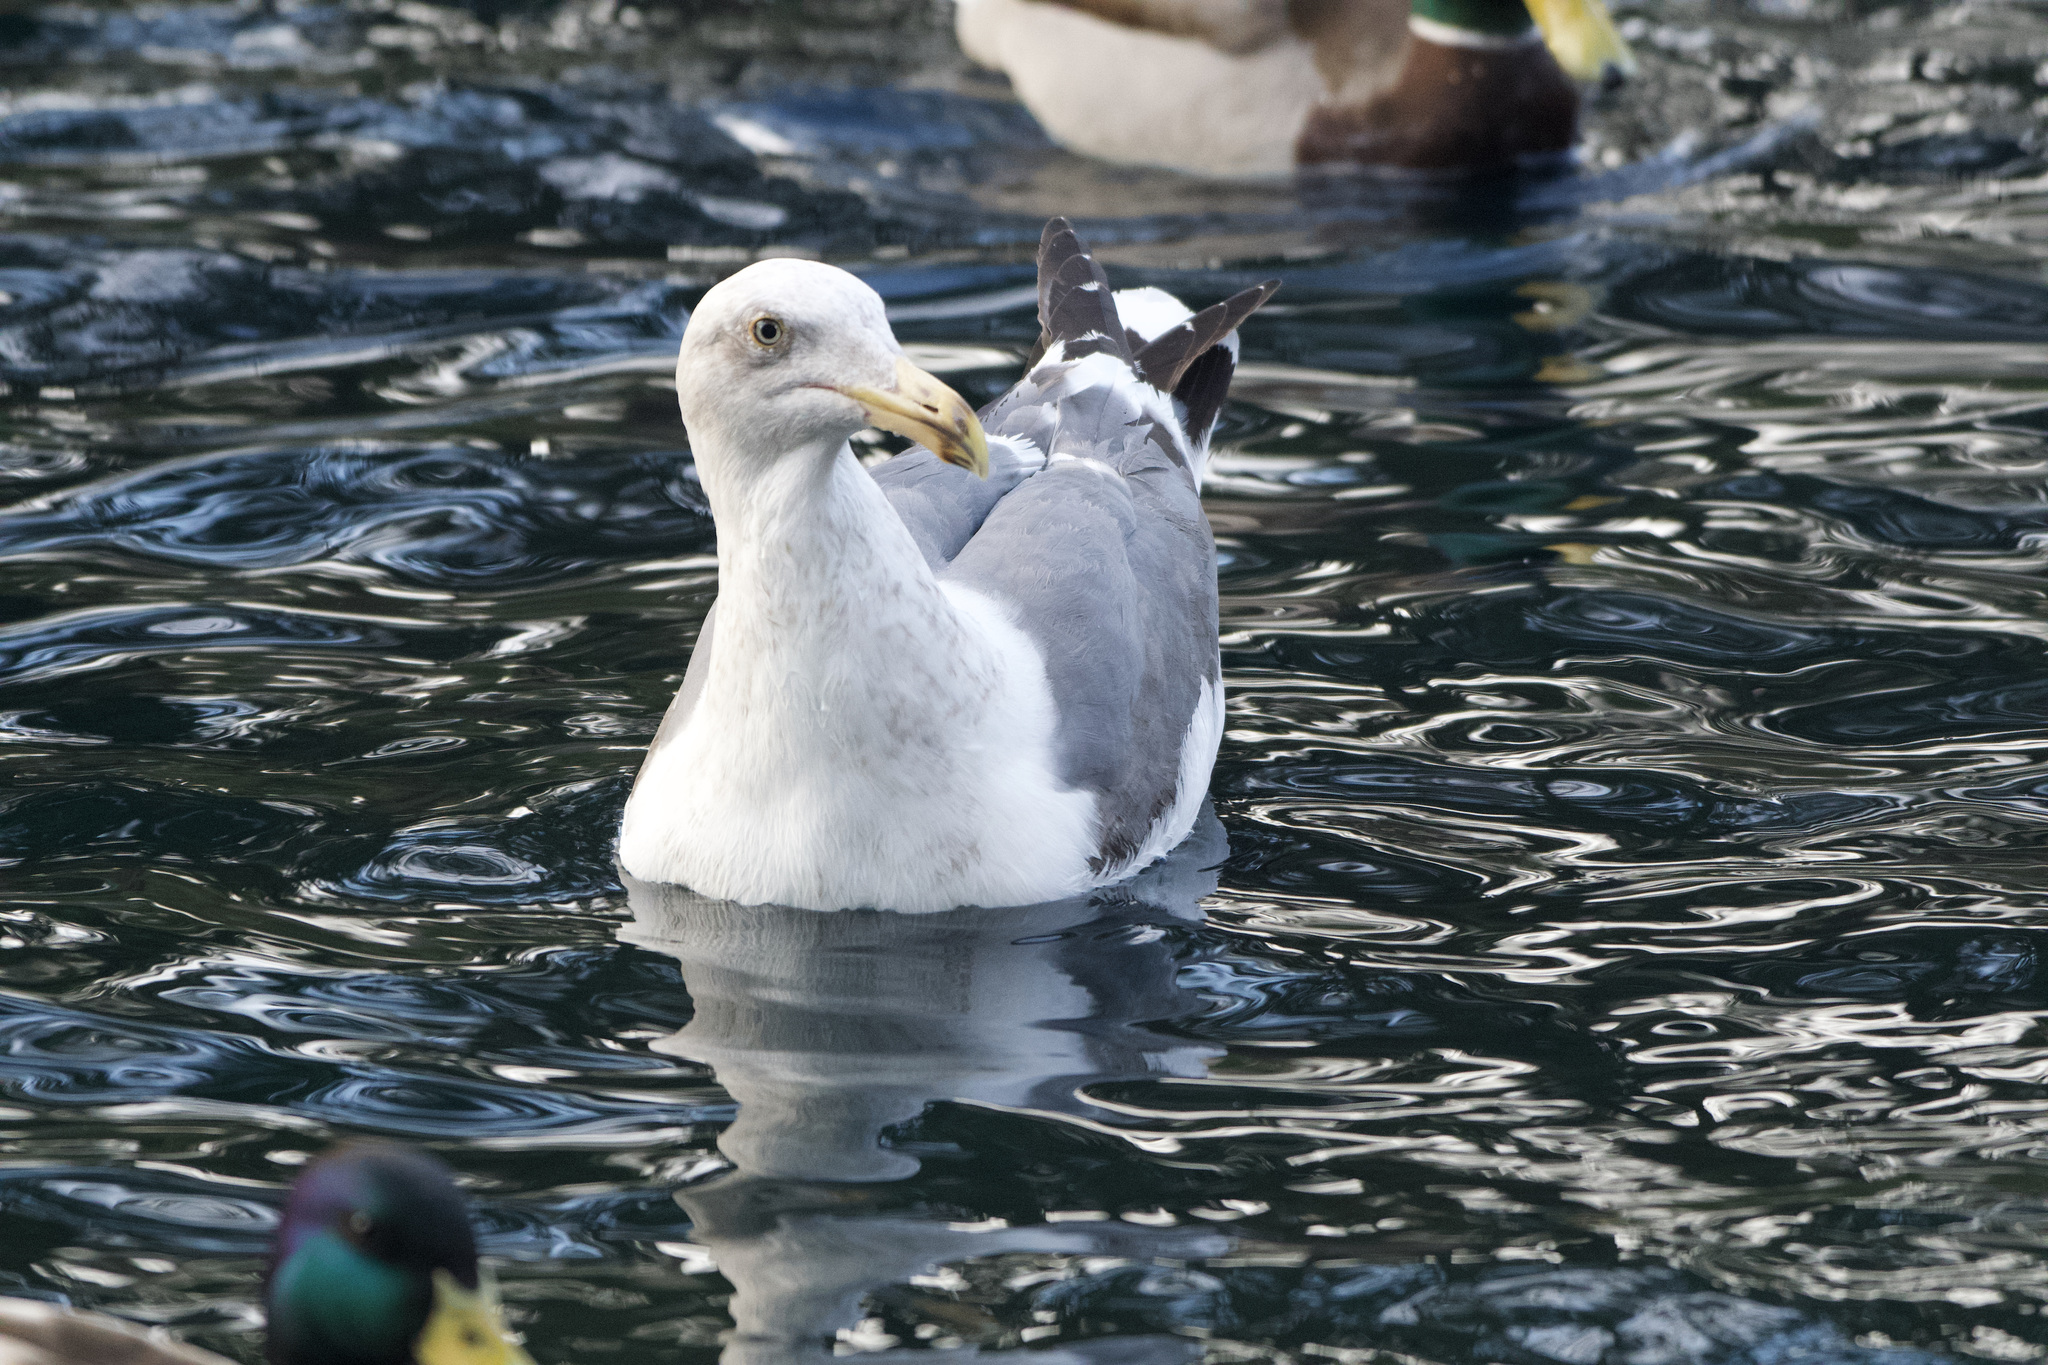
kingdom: Animalia
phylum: Chordata
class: Aves
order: Charadriiformes
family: Laridae
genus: Larus
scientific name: Larus
